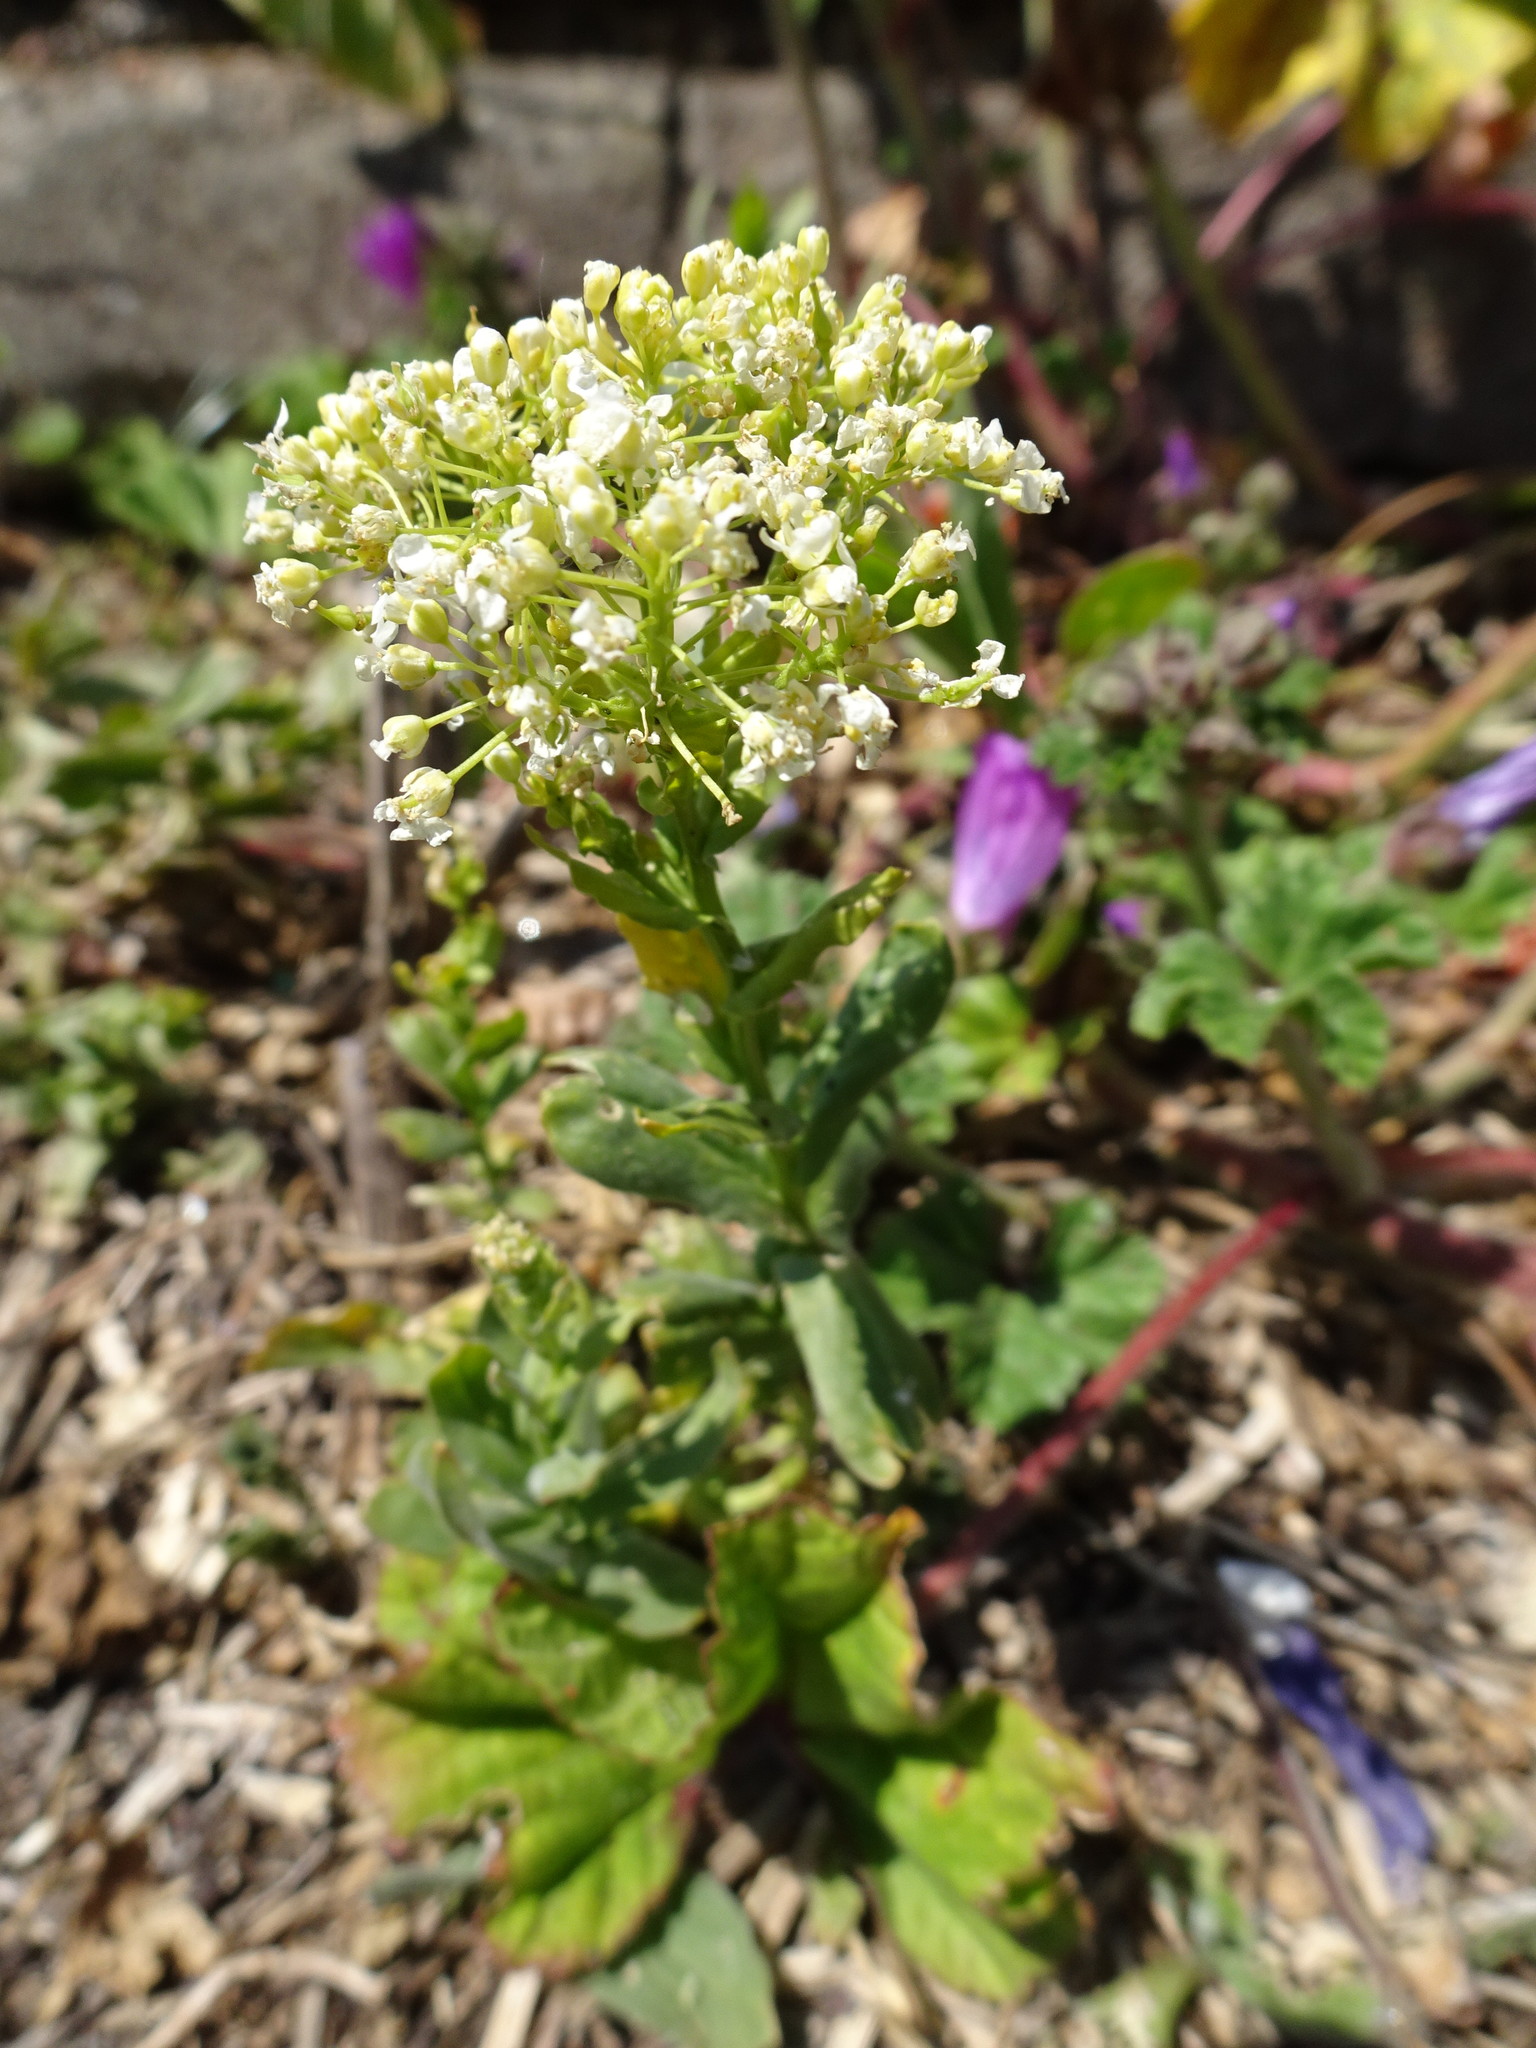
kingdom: Plantae
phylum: Tracheophyta
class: Magnoliopsida
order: Brassicales
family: Brassicaceae
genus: Lepidium
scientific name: Lepidium draba
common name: Hoary cress
